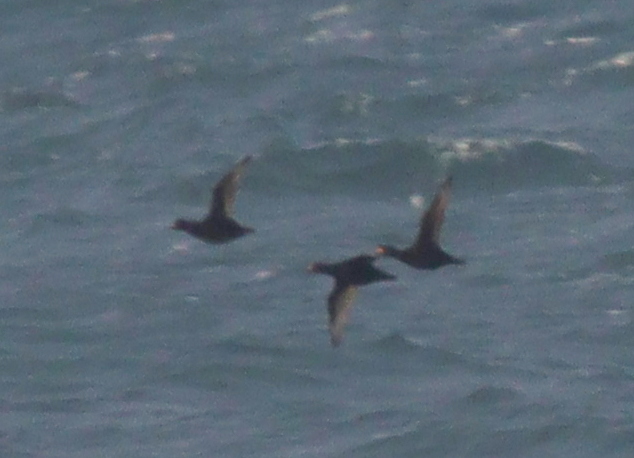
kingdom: Animalia
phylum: Chordata
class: Aves
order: Anseriformes
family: Anatidae
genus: Melanitta
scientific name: Melanitta nigra
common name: Common scoter
